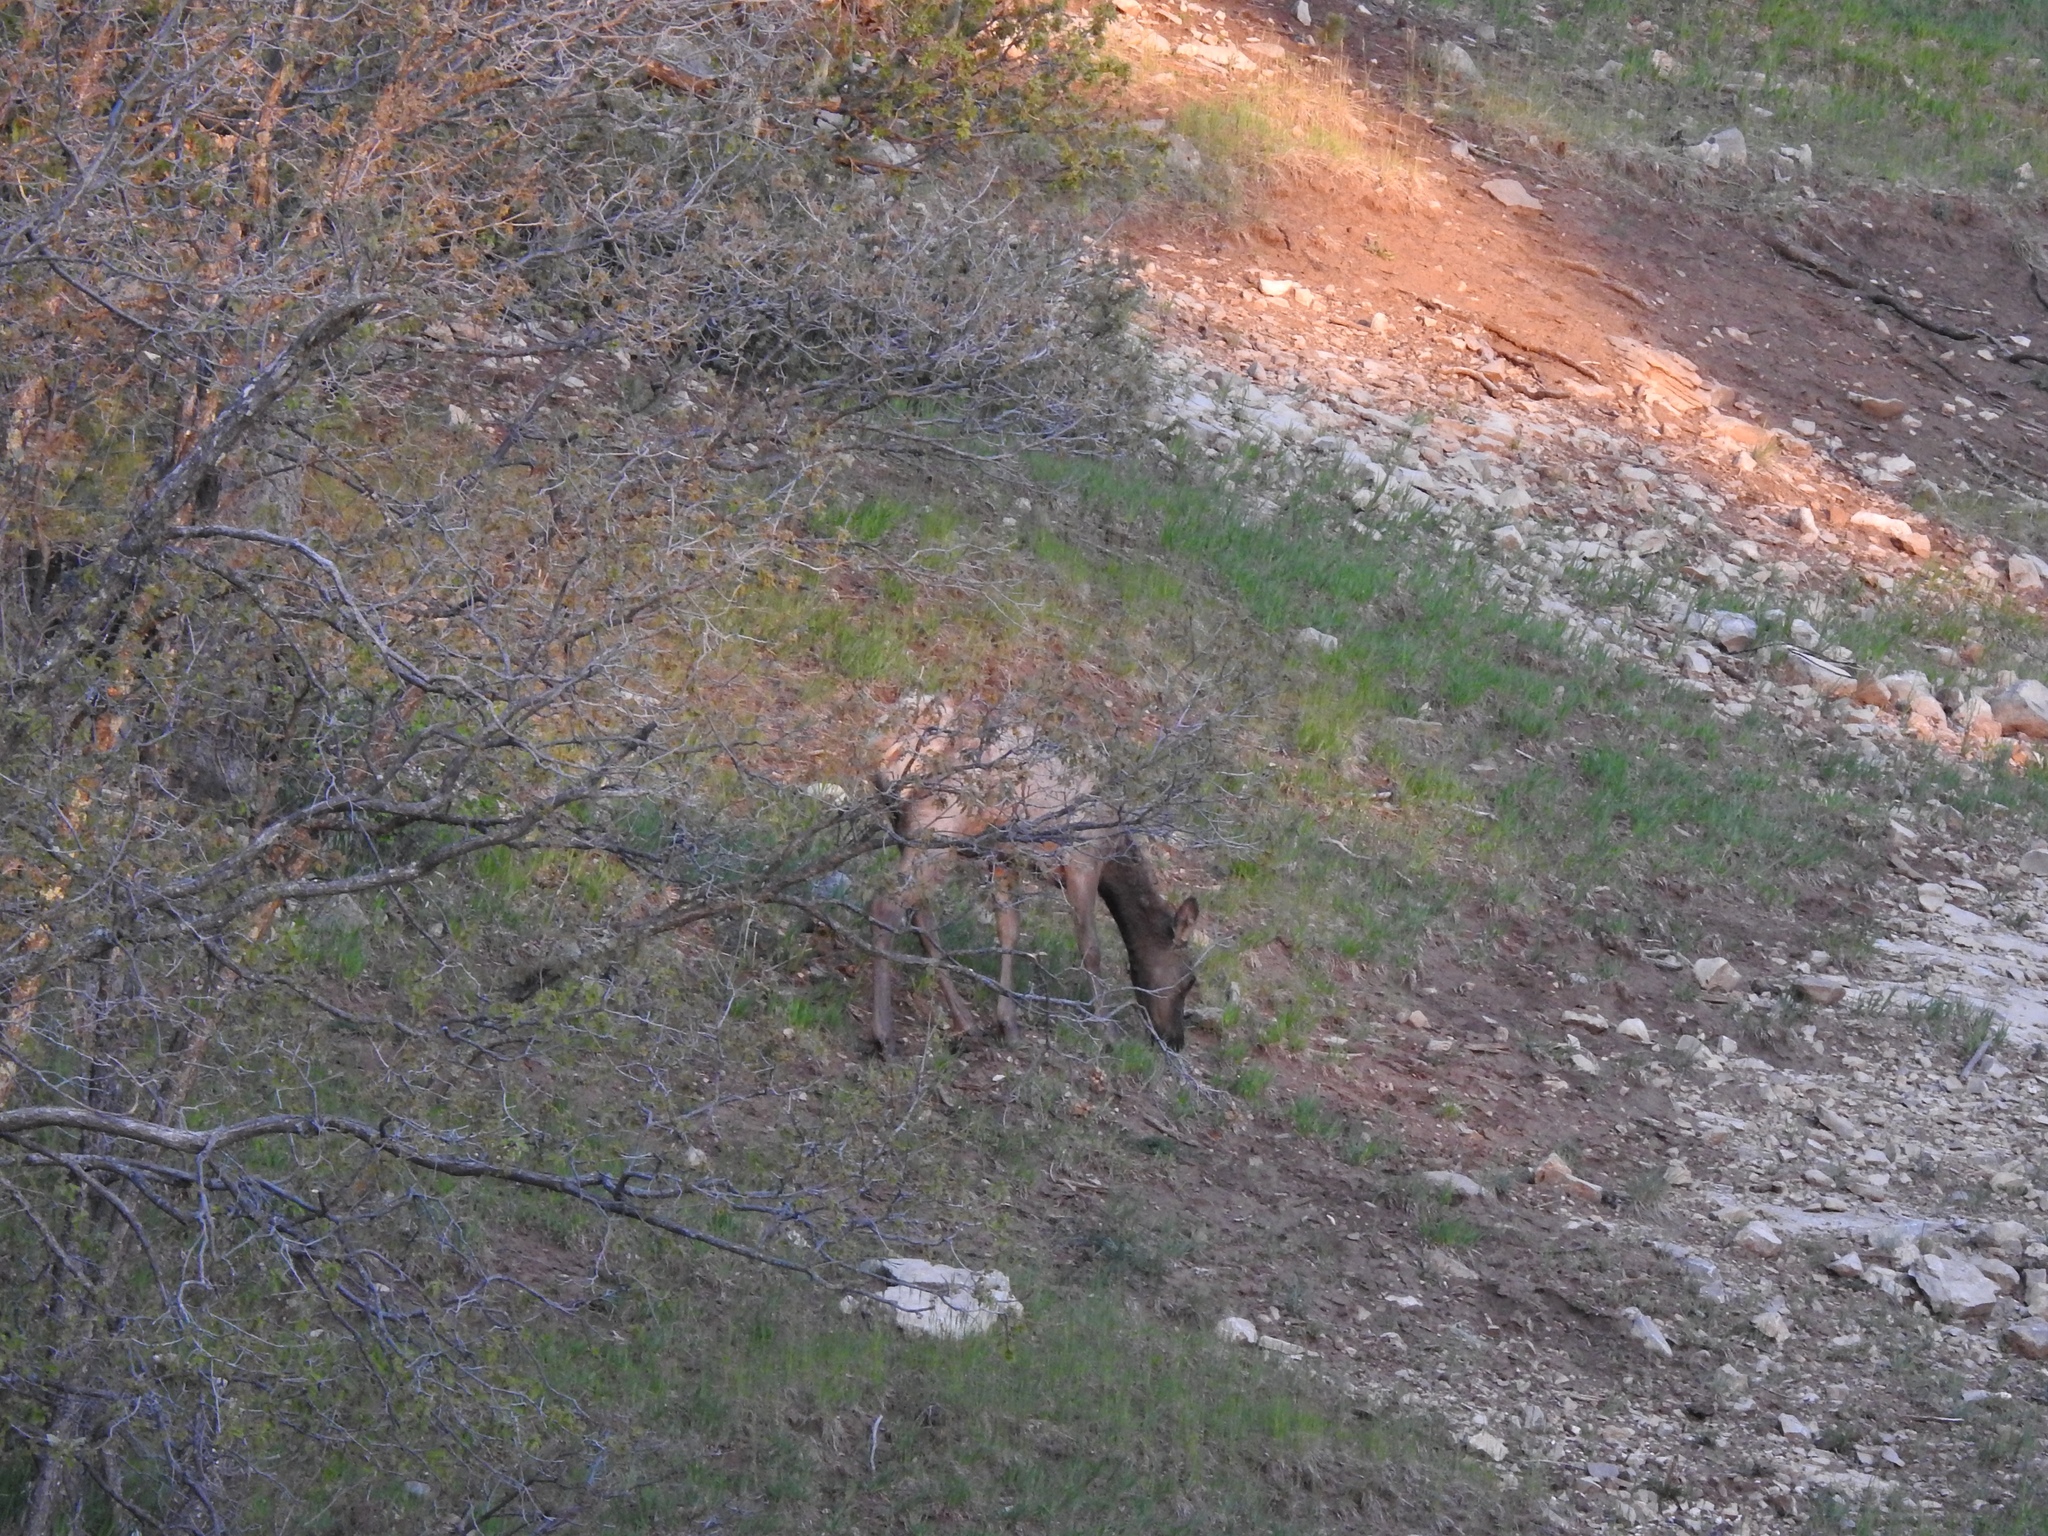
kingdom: Animalia
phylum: Chordata
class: Mammalia
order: Artiodactyla
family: Cervidae
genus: Cervus
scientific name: Cervus elaphus
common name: Red deer
